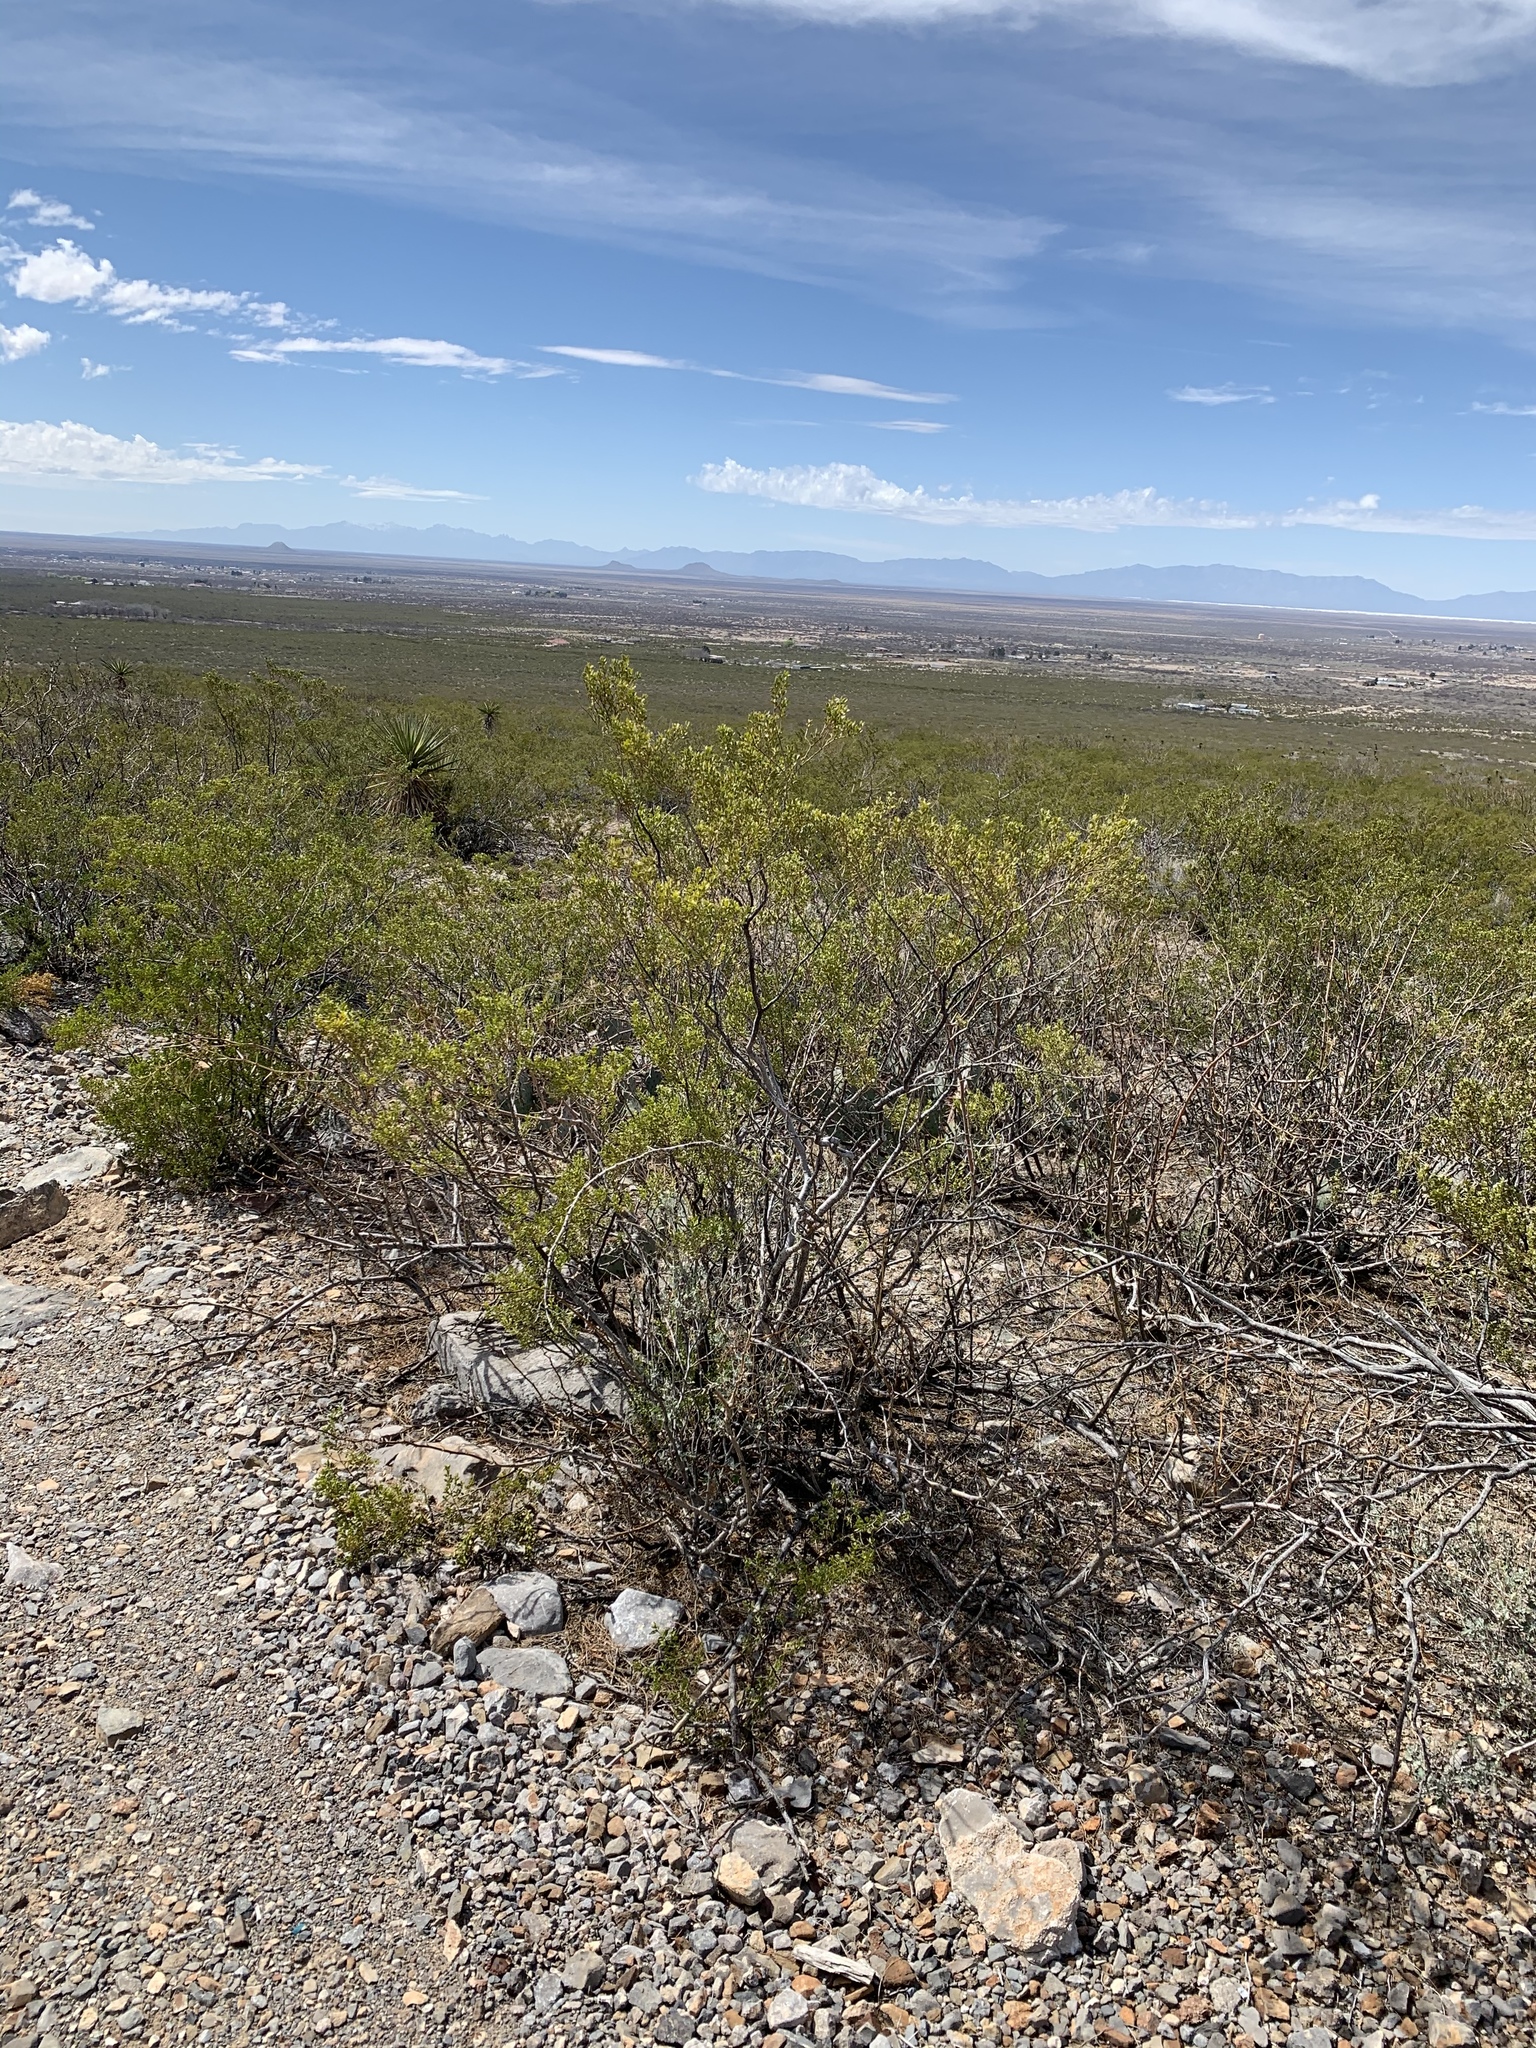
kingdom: Plantae
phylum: Tracheophyta
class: Magnoliopsida
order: Zygophyllales
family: Zygophyllaceae
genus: Larrea
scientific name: Larrea tridentata
